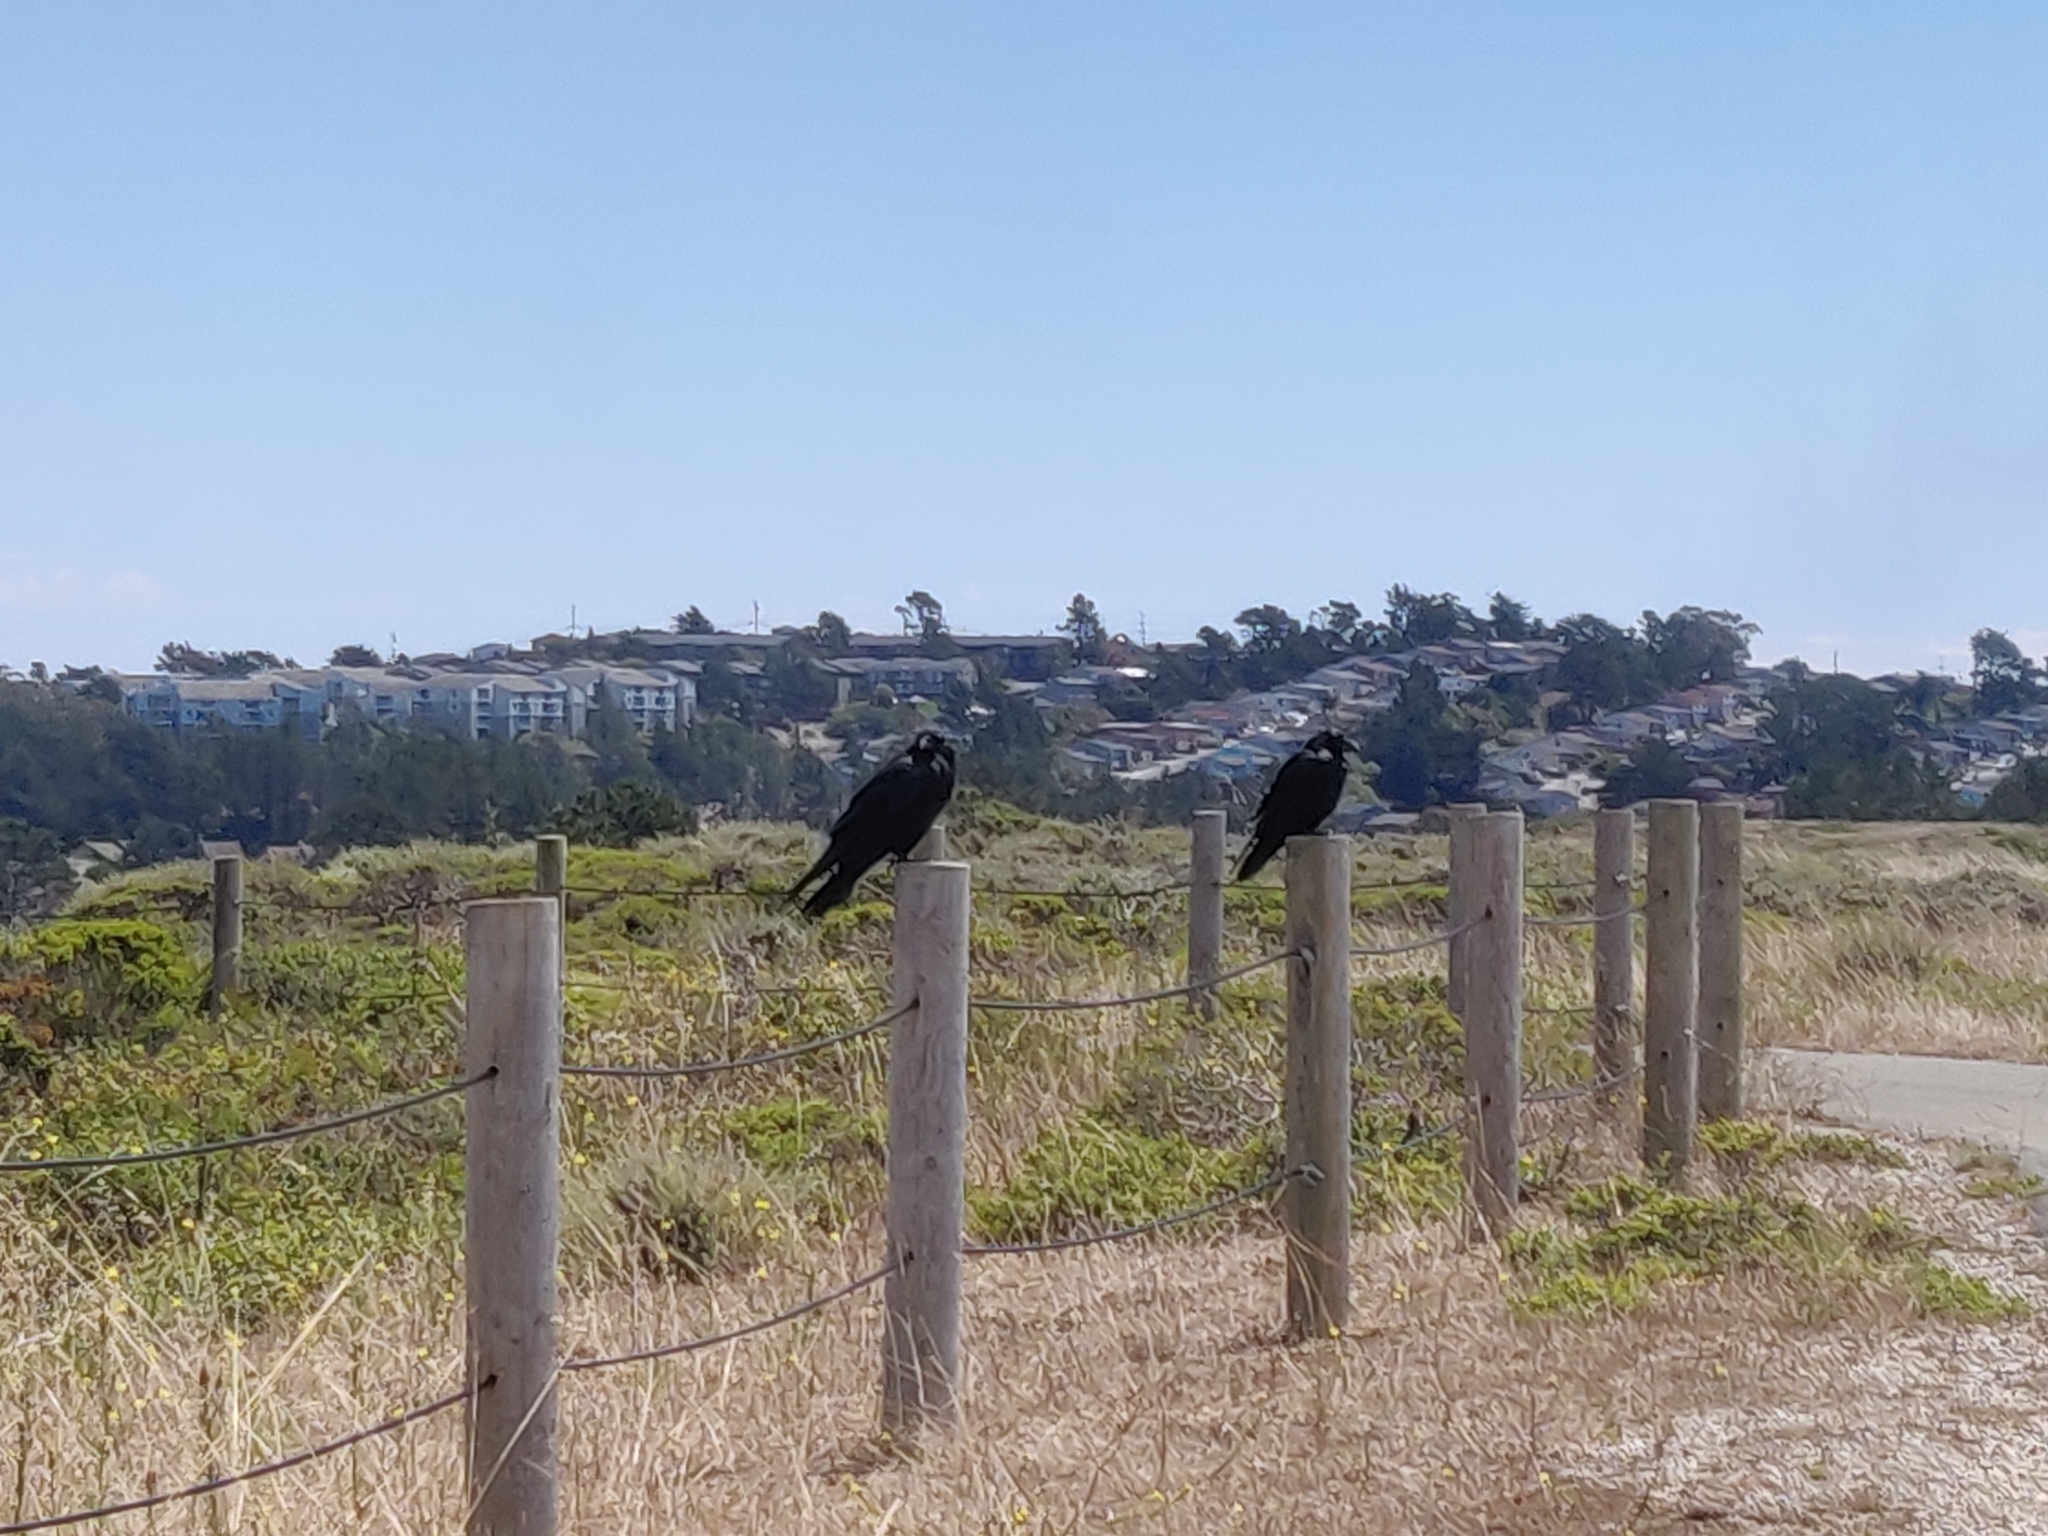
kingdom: Animalia
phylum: Chordata
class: Aves
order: Passeriformes
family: Corvidae
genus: Corvus
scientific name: Corvus corax
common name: Common raven
